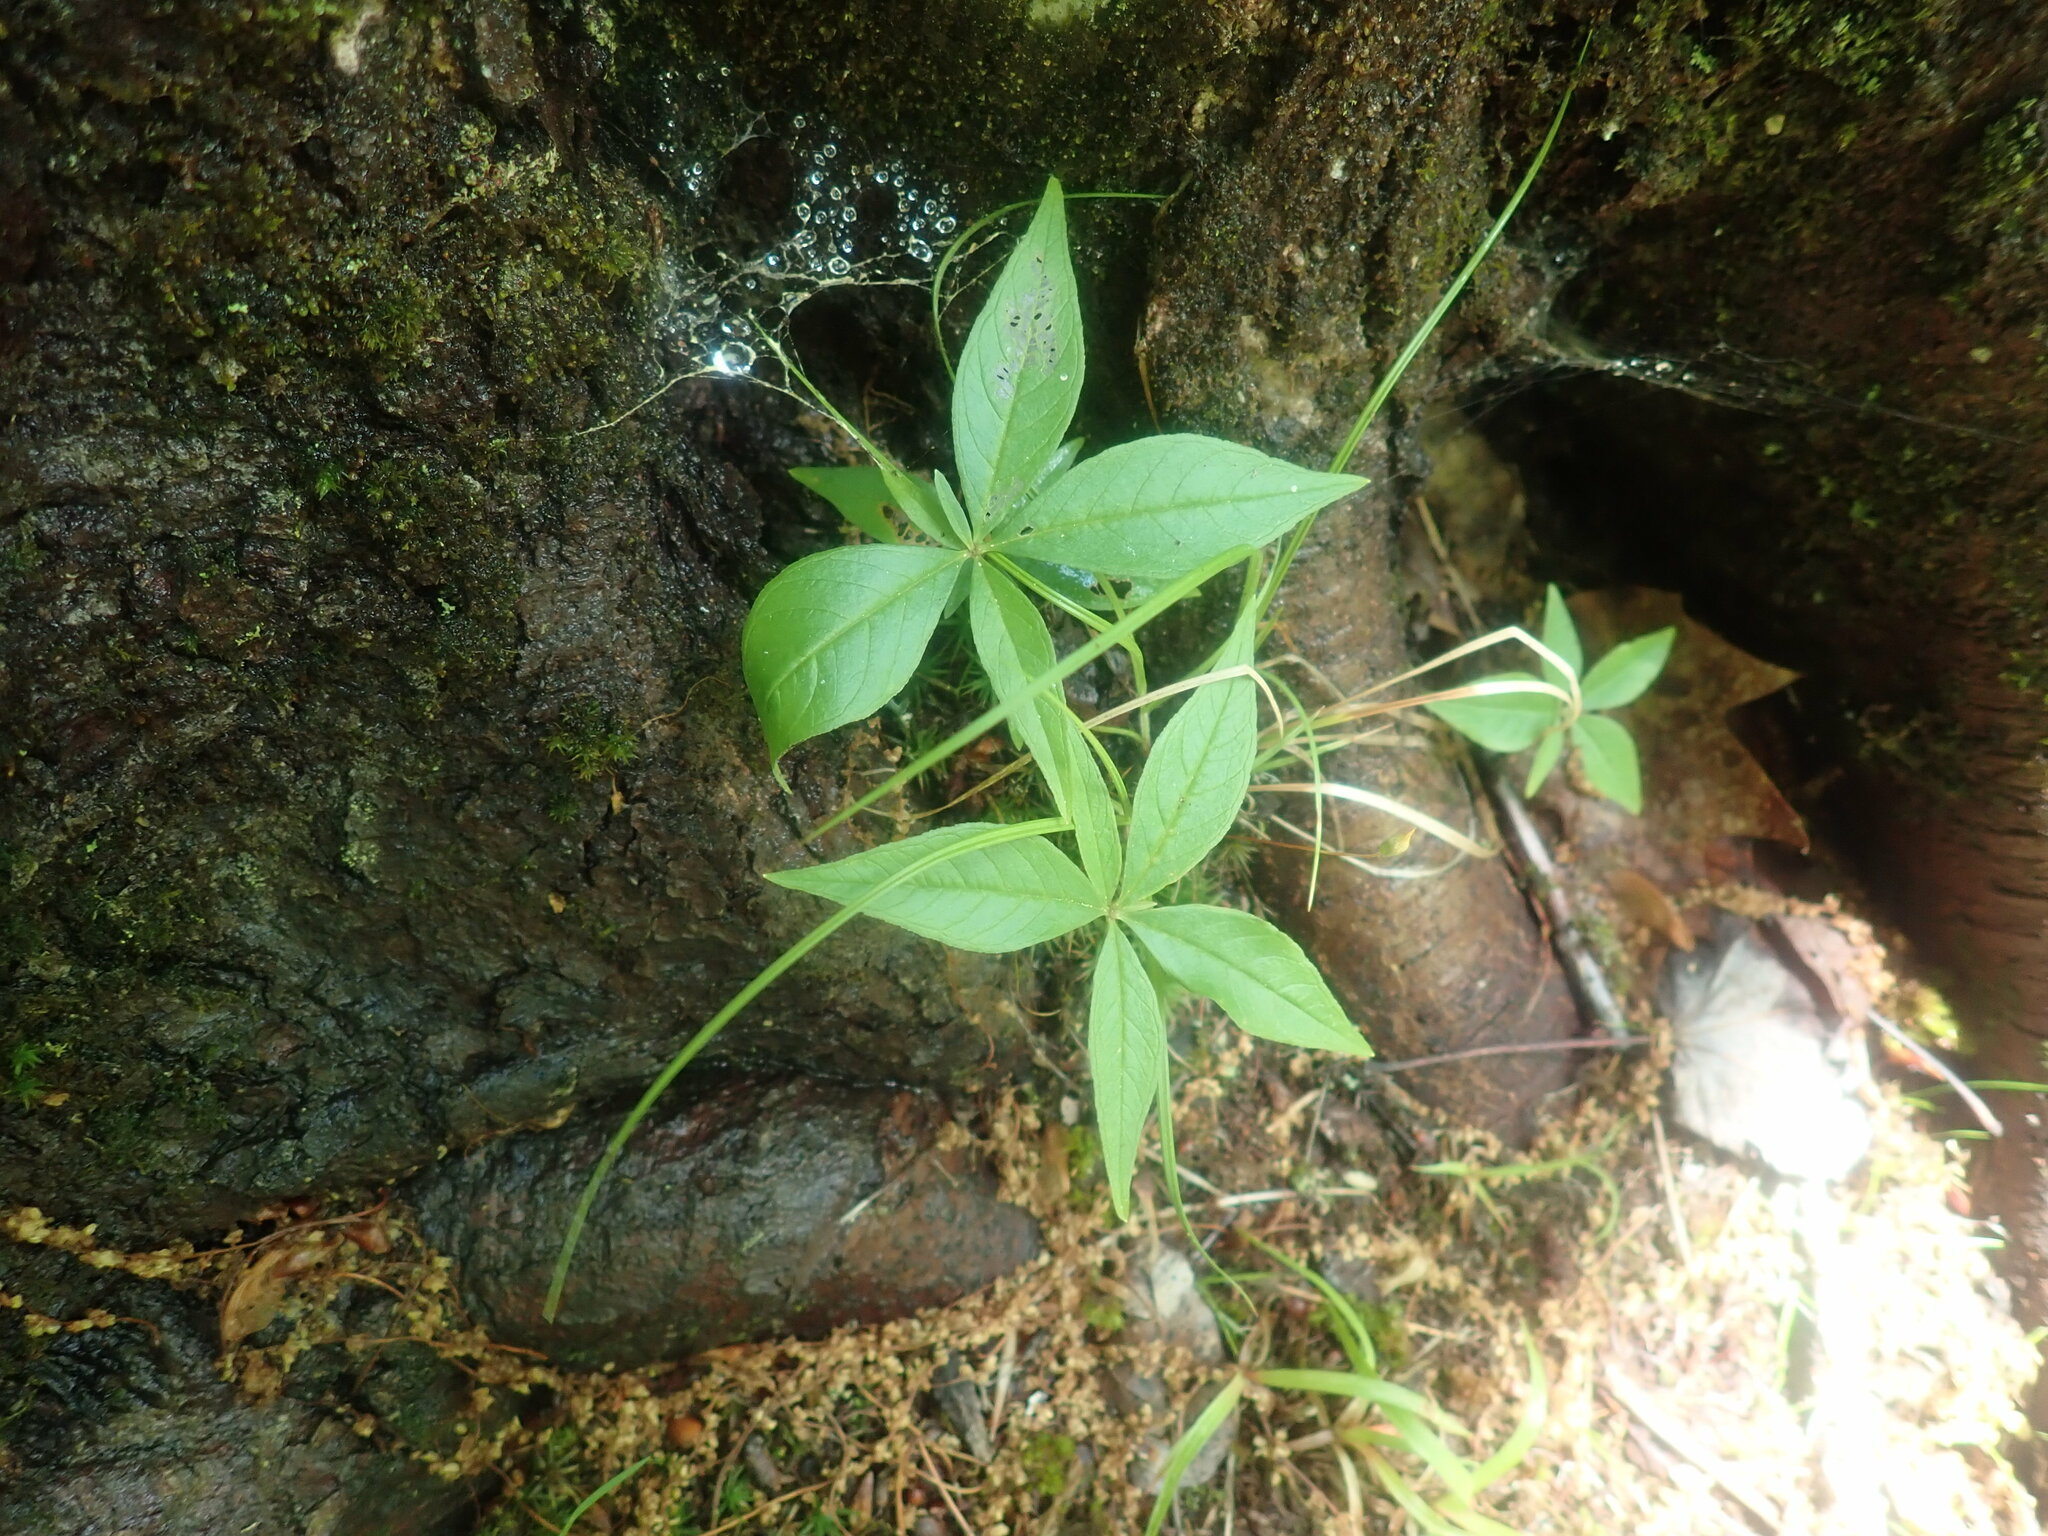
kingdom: Plantae
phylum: Tracheophyta
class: Magnoliopsida
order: Ericales
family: Primulaceae
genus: Lysimachia
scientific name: Lysimachia borealis
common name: American starflower
